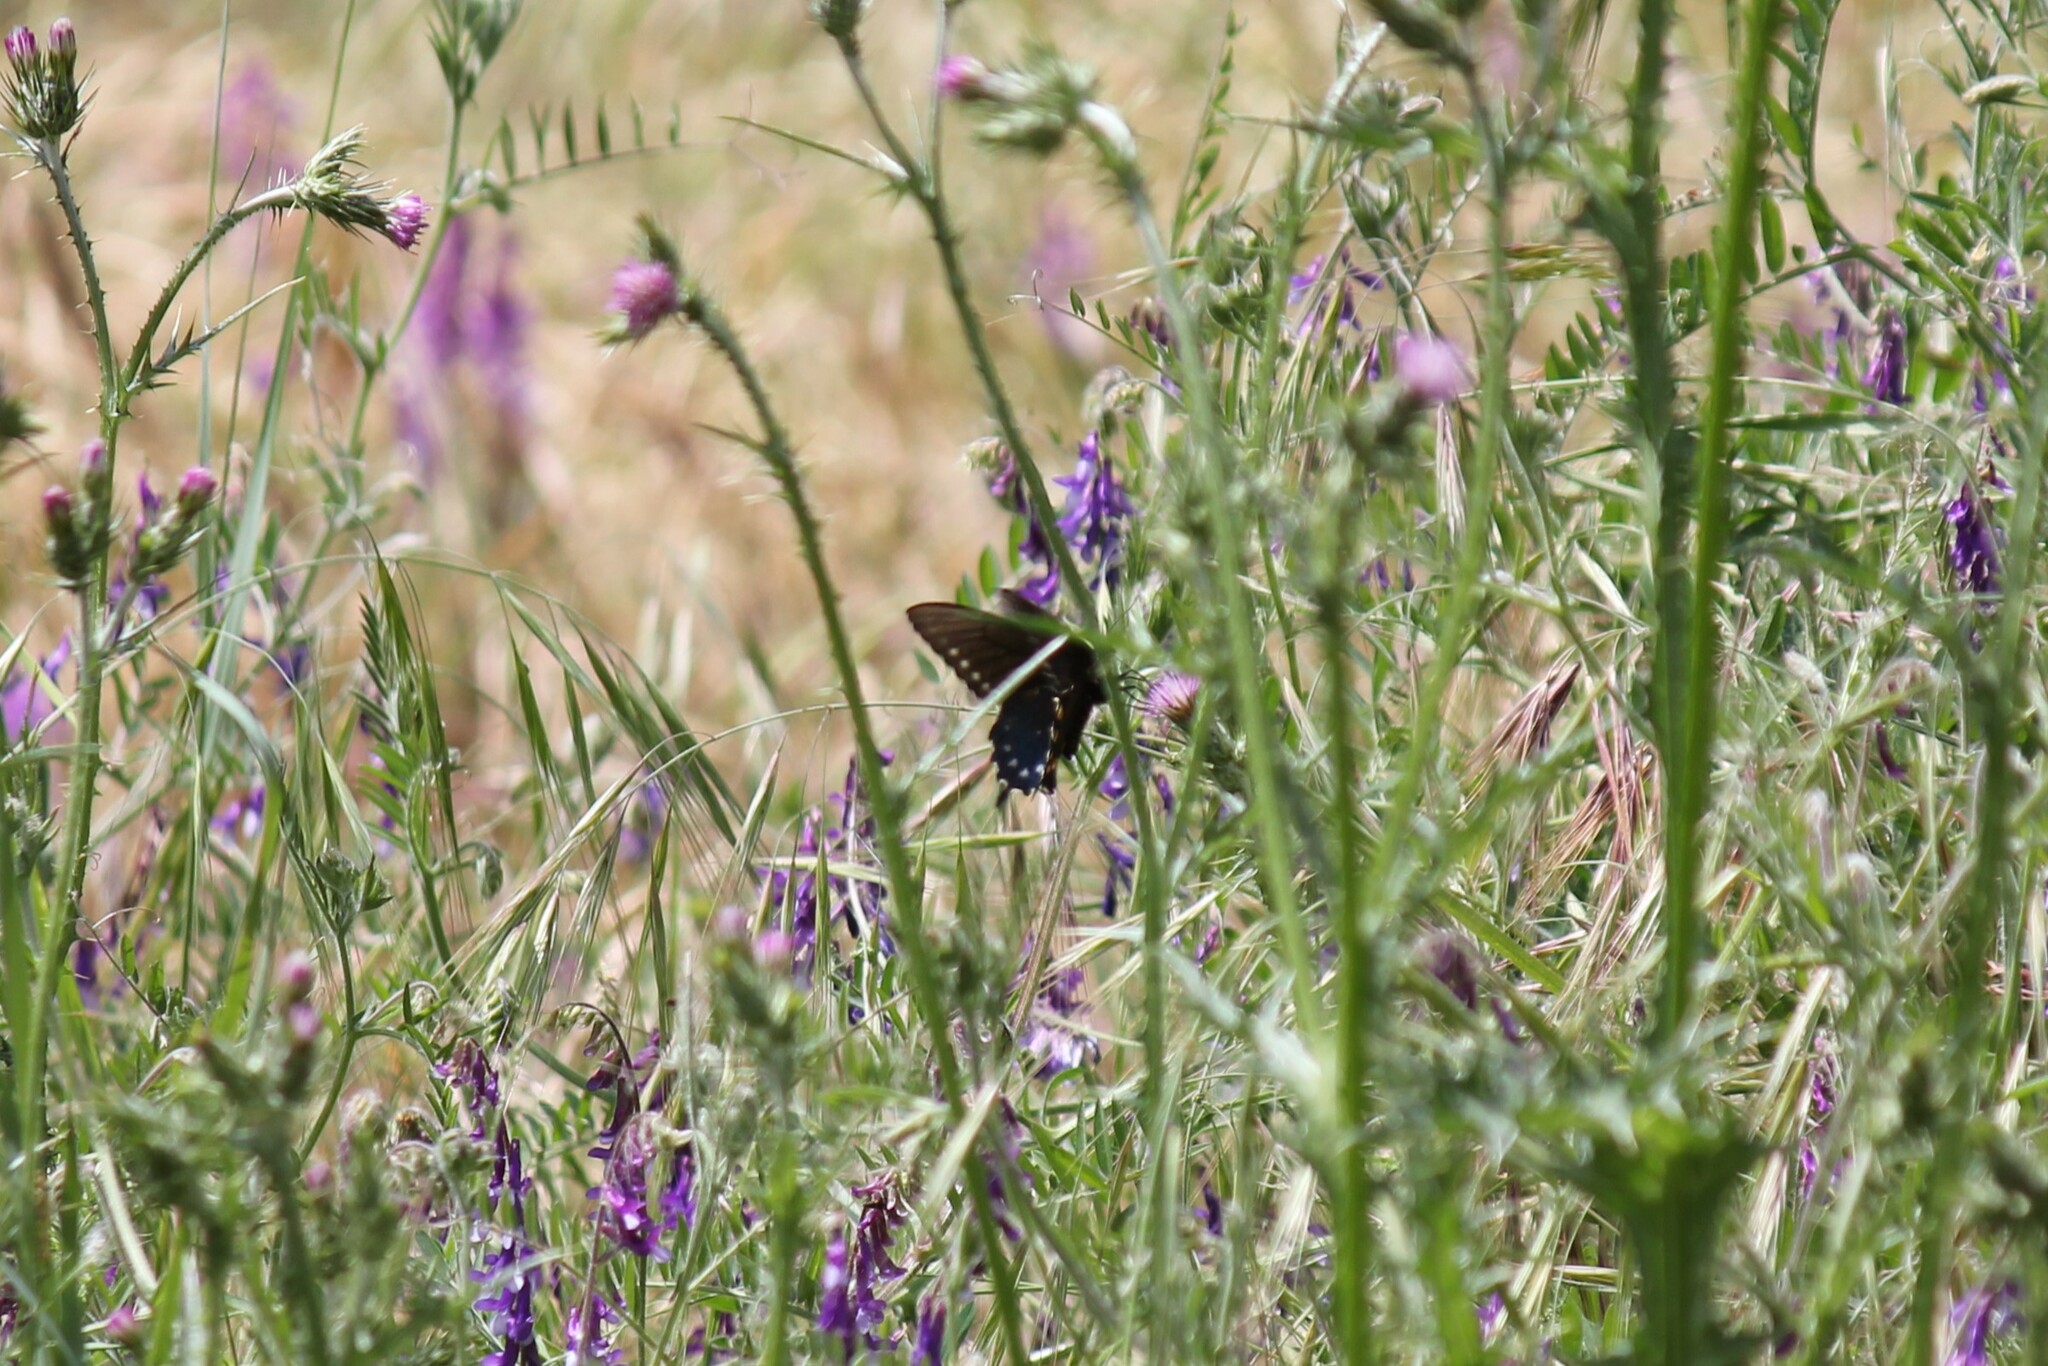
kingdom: Animalia
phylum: Arthropoda
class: Insecta
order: Lepidoptera
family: Papilionidae
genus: Battus
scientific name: Battus philenor
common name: Pipevine swallowtail
